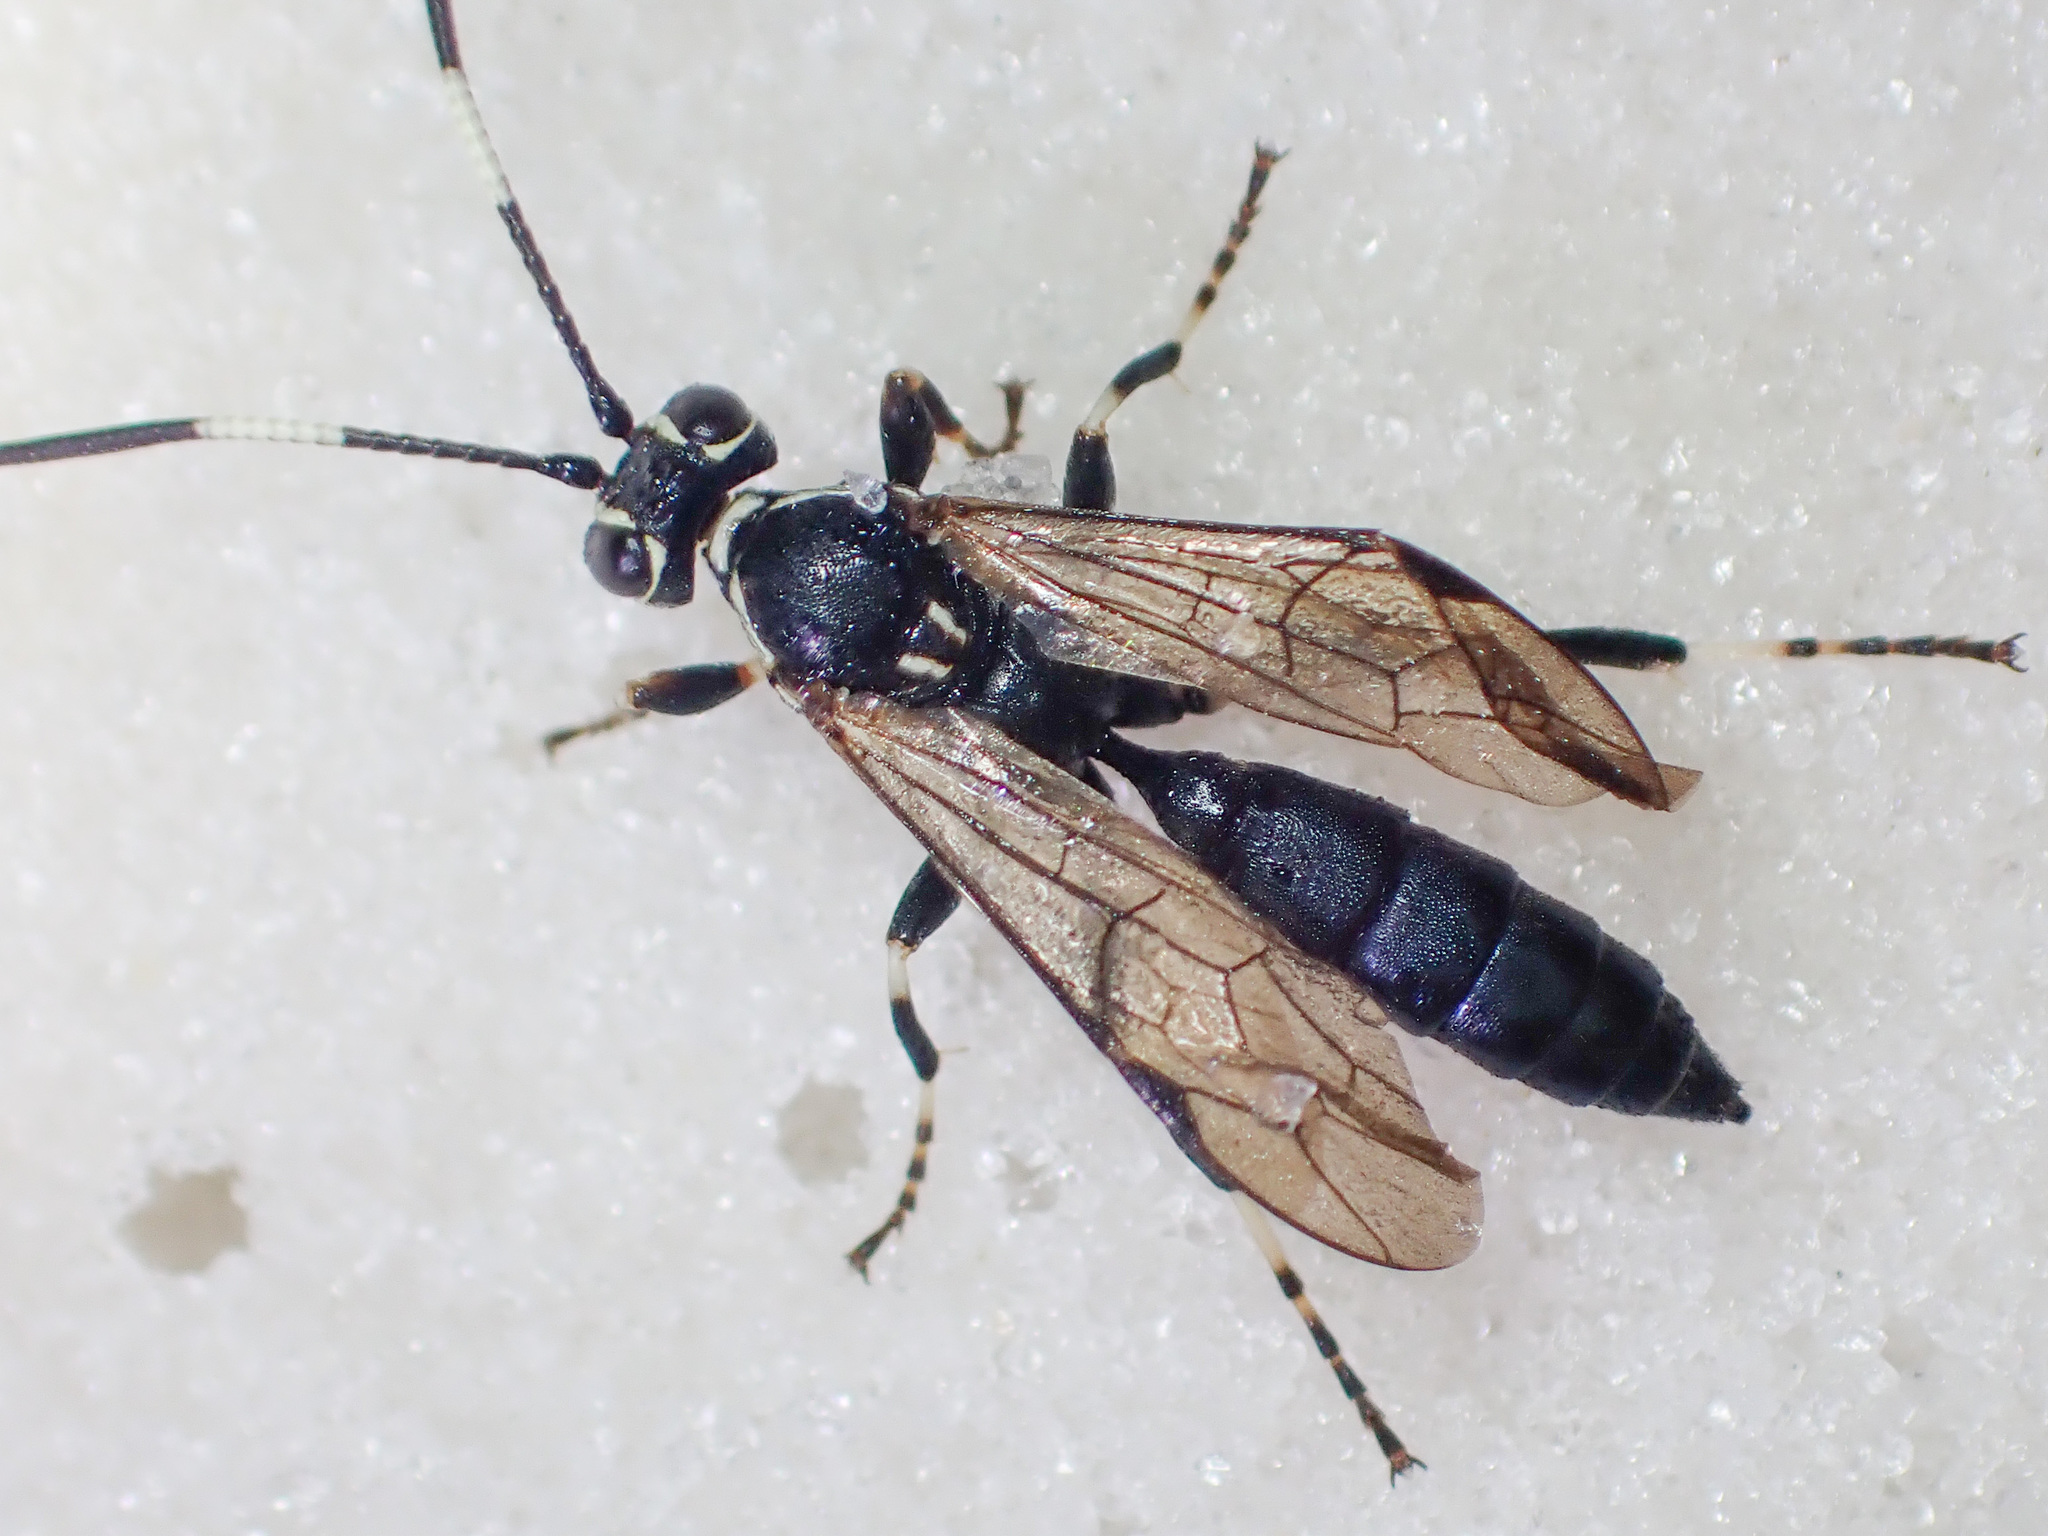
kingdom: Animalia
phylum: Arthropoda
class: Insecta
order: Hymenoptera
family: Ichneumonidae
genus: Coelichneumon
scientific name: Coelichneumon navus
